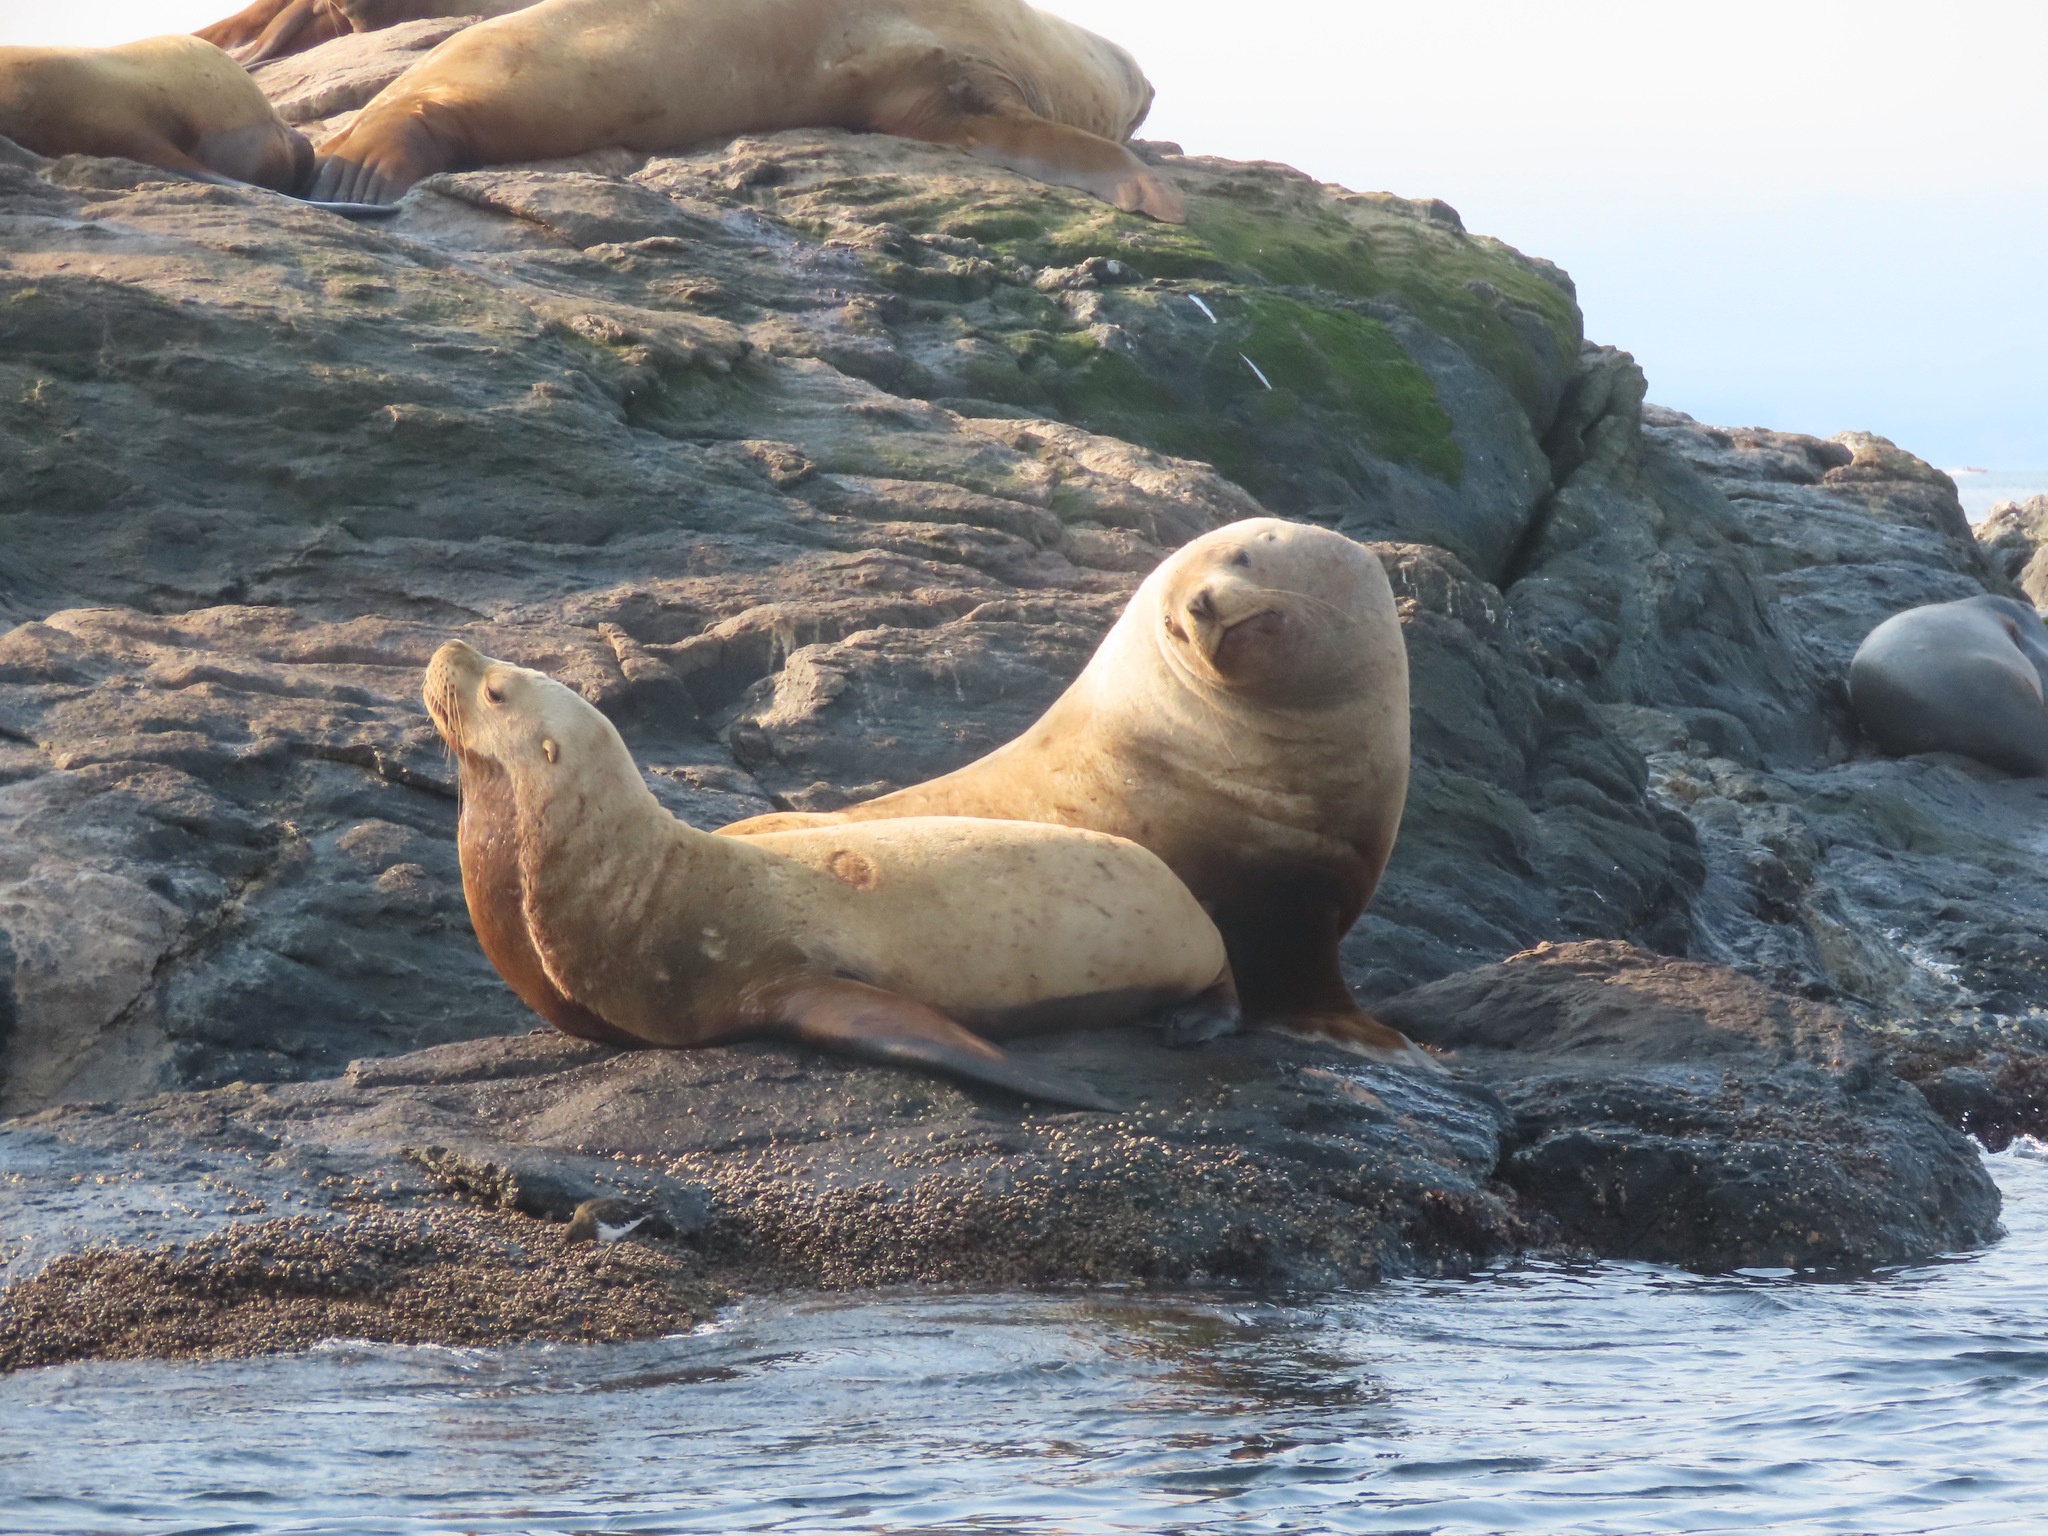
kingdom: Animalia
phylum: Chordata
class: Mammalia
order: Carnivora
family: Otariidae
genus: Eumetopias
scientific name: Eumetopias jubatus
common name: Steller sea lion
